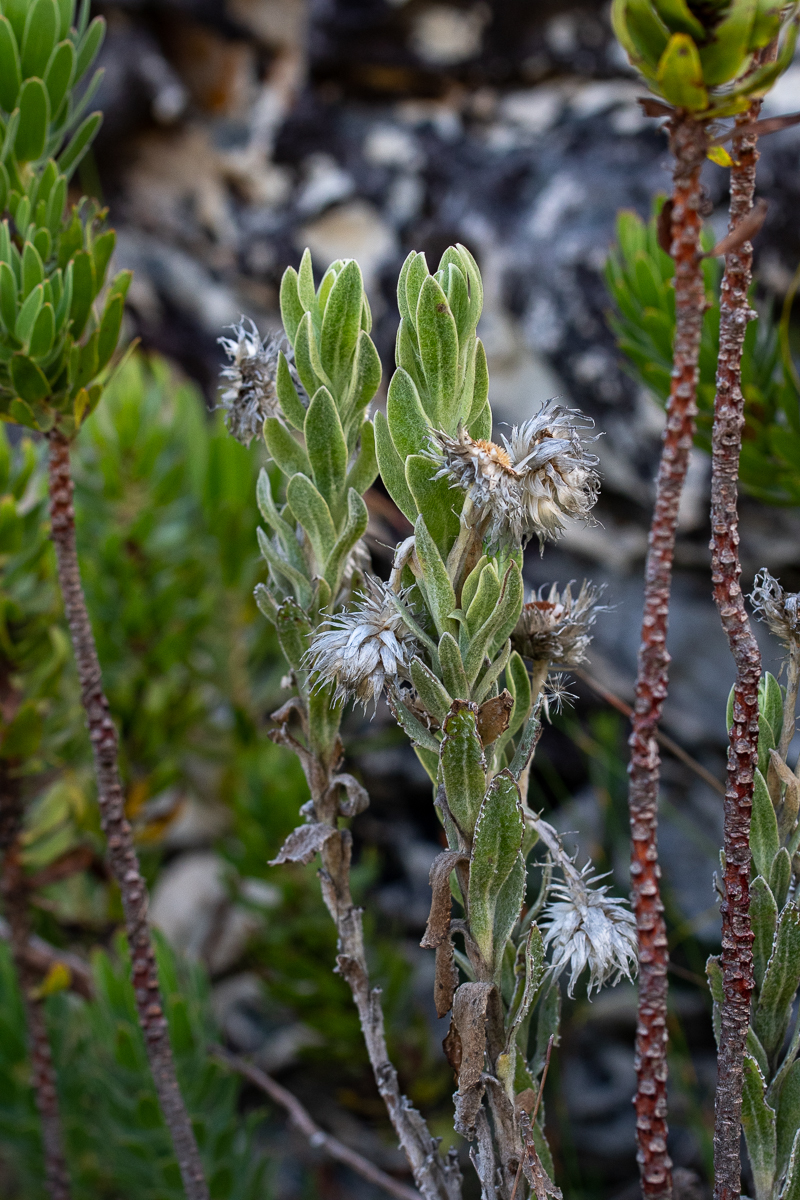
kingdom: Plantae
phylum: Tracheophyta
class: Magnoliopsida
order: Asterales
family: Asteraceae
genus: Syncarpha
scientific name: Syncarpha vestita
